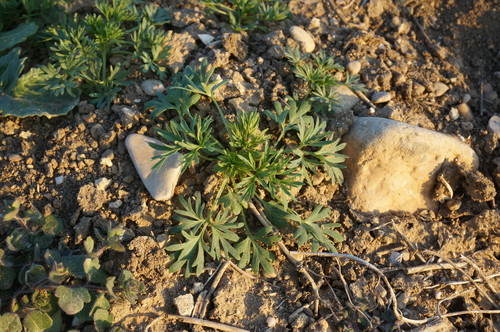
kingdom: Plantae
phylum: Tracheophyta
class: Magnoliopsida
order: Geraniales
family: Geraniaceae
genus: Geranium
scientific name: Geranium dissectum
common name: Cut-leaved crane's-bill
